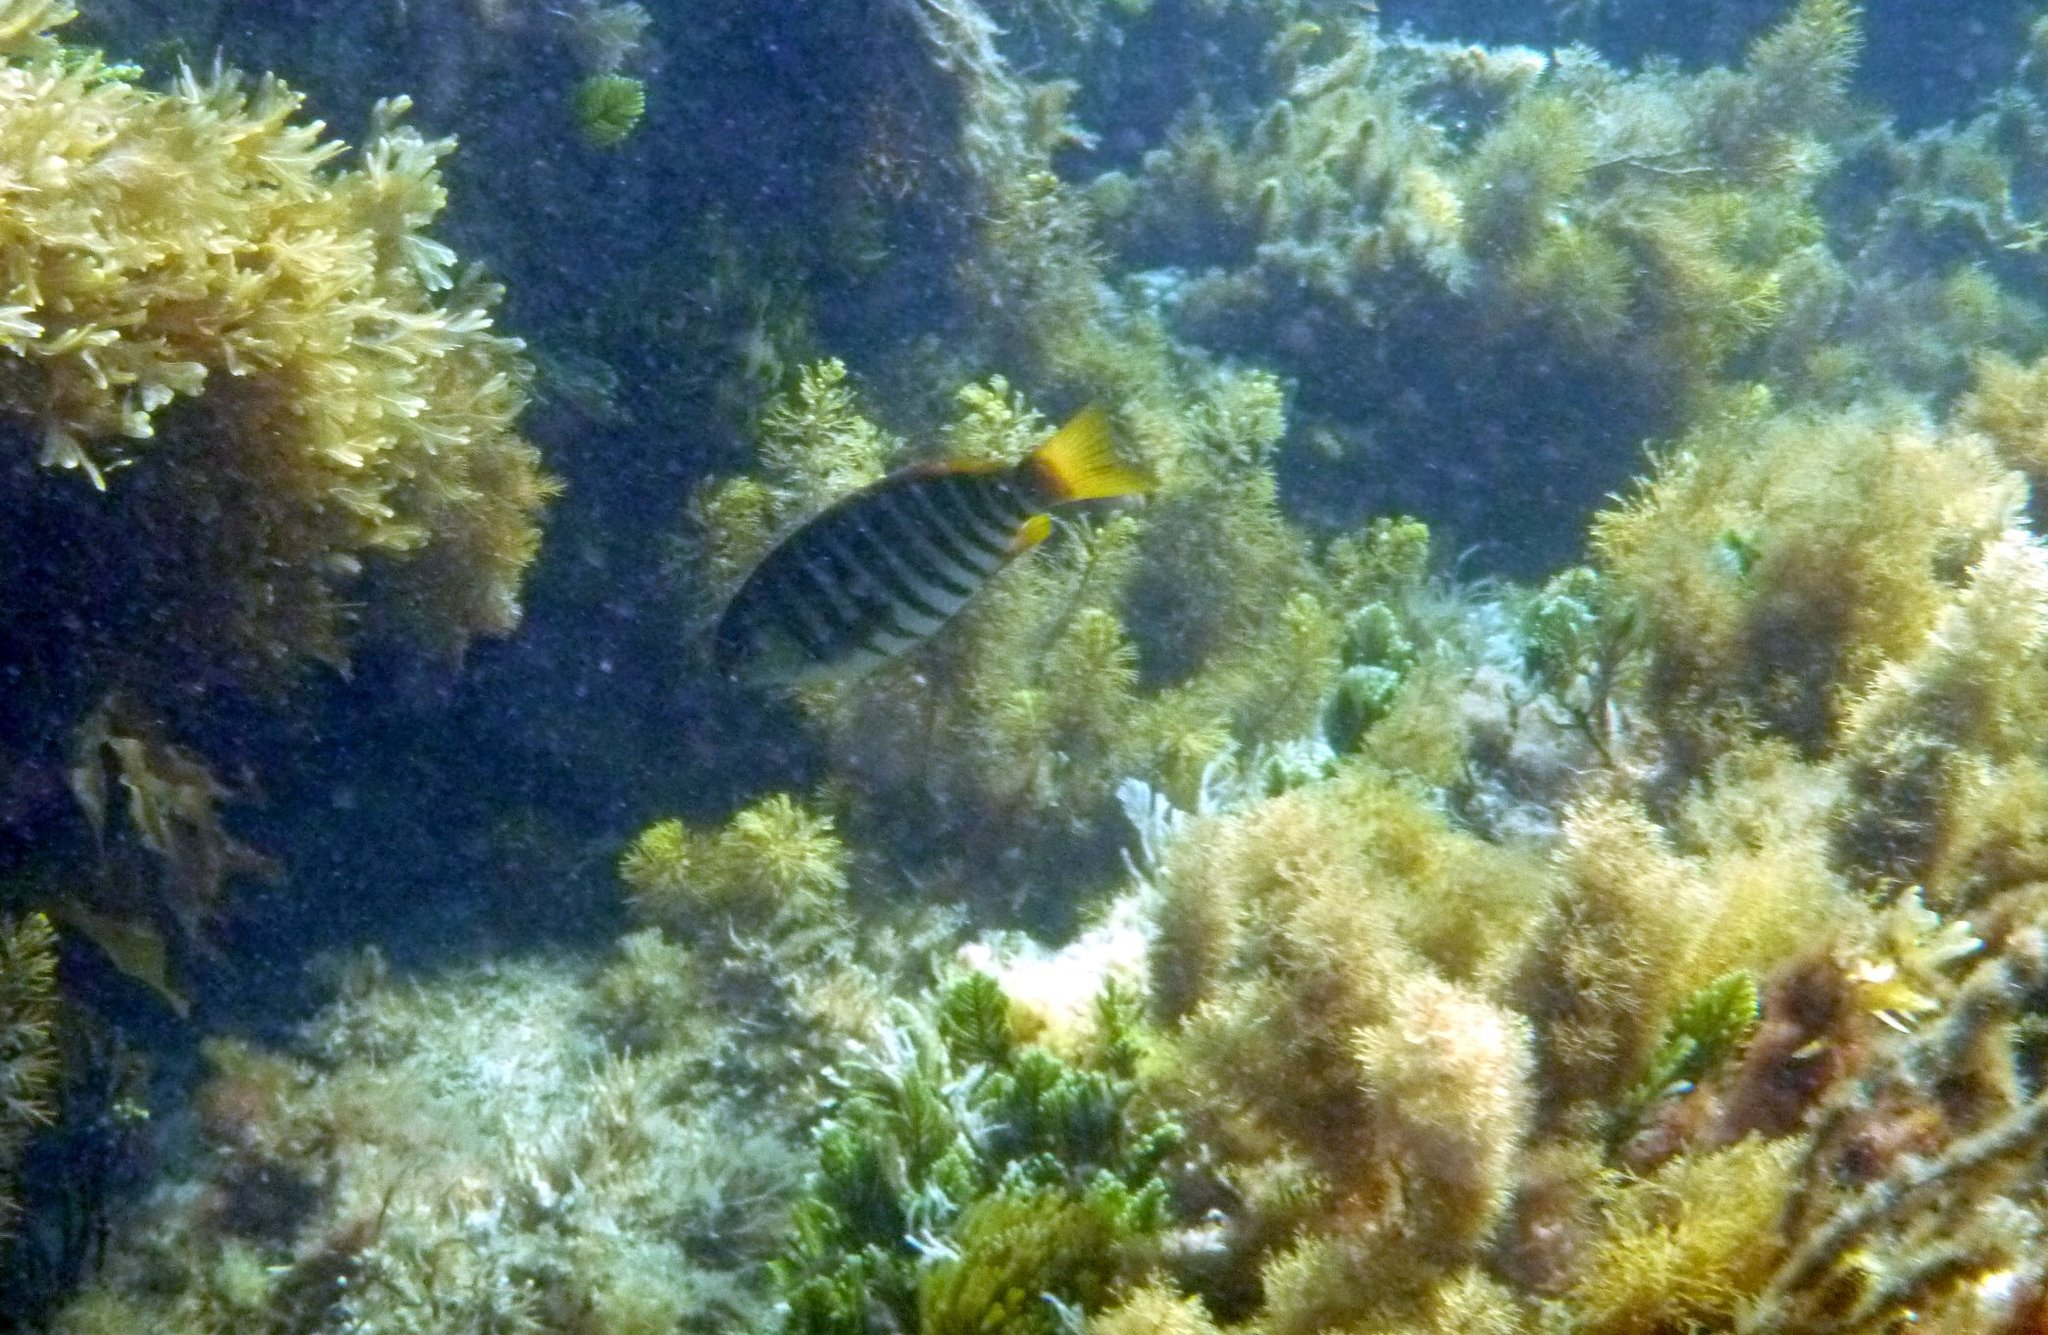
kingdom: Animalia
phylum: Chordata
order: Perciformes
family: Kyphosidae
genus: Girella
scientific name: Girella zebra
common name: Stripey bream
